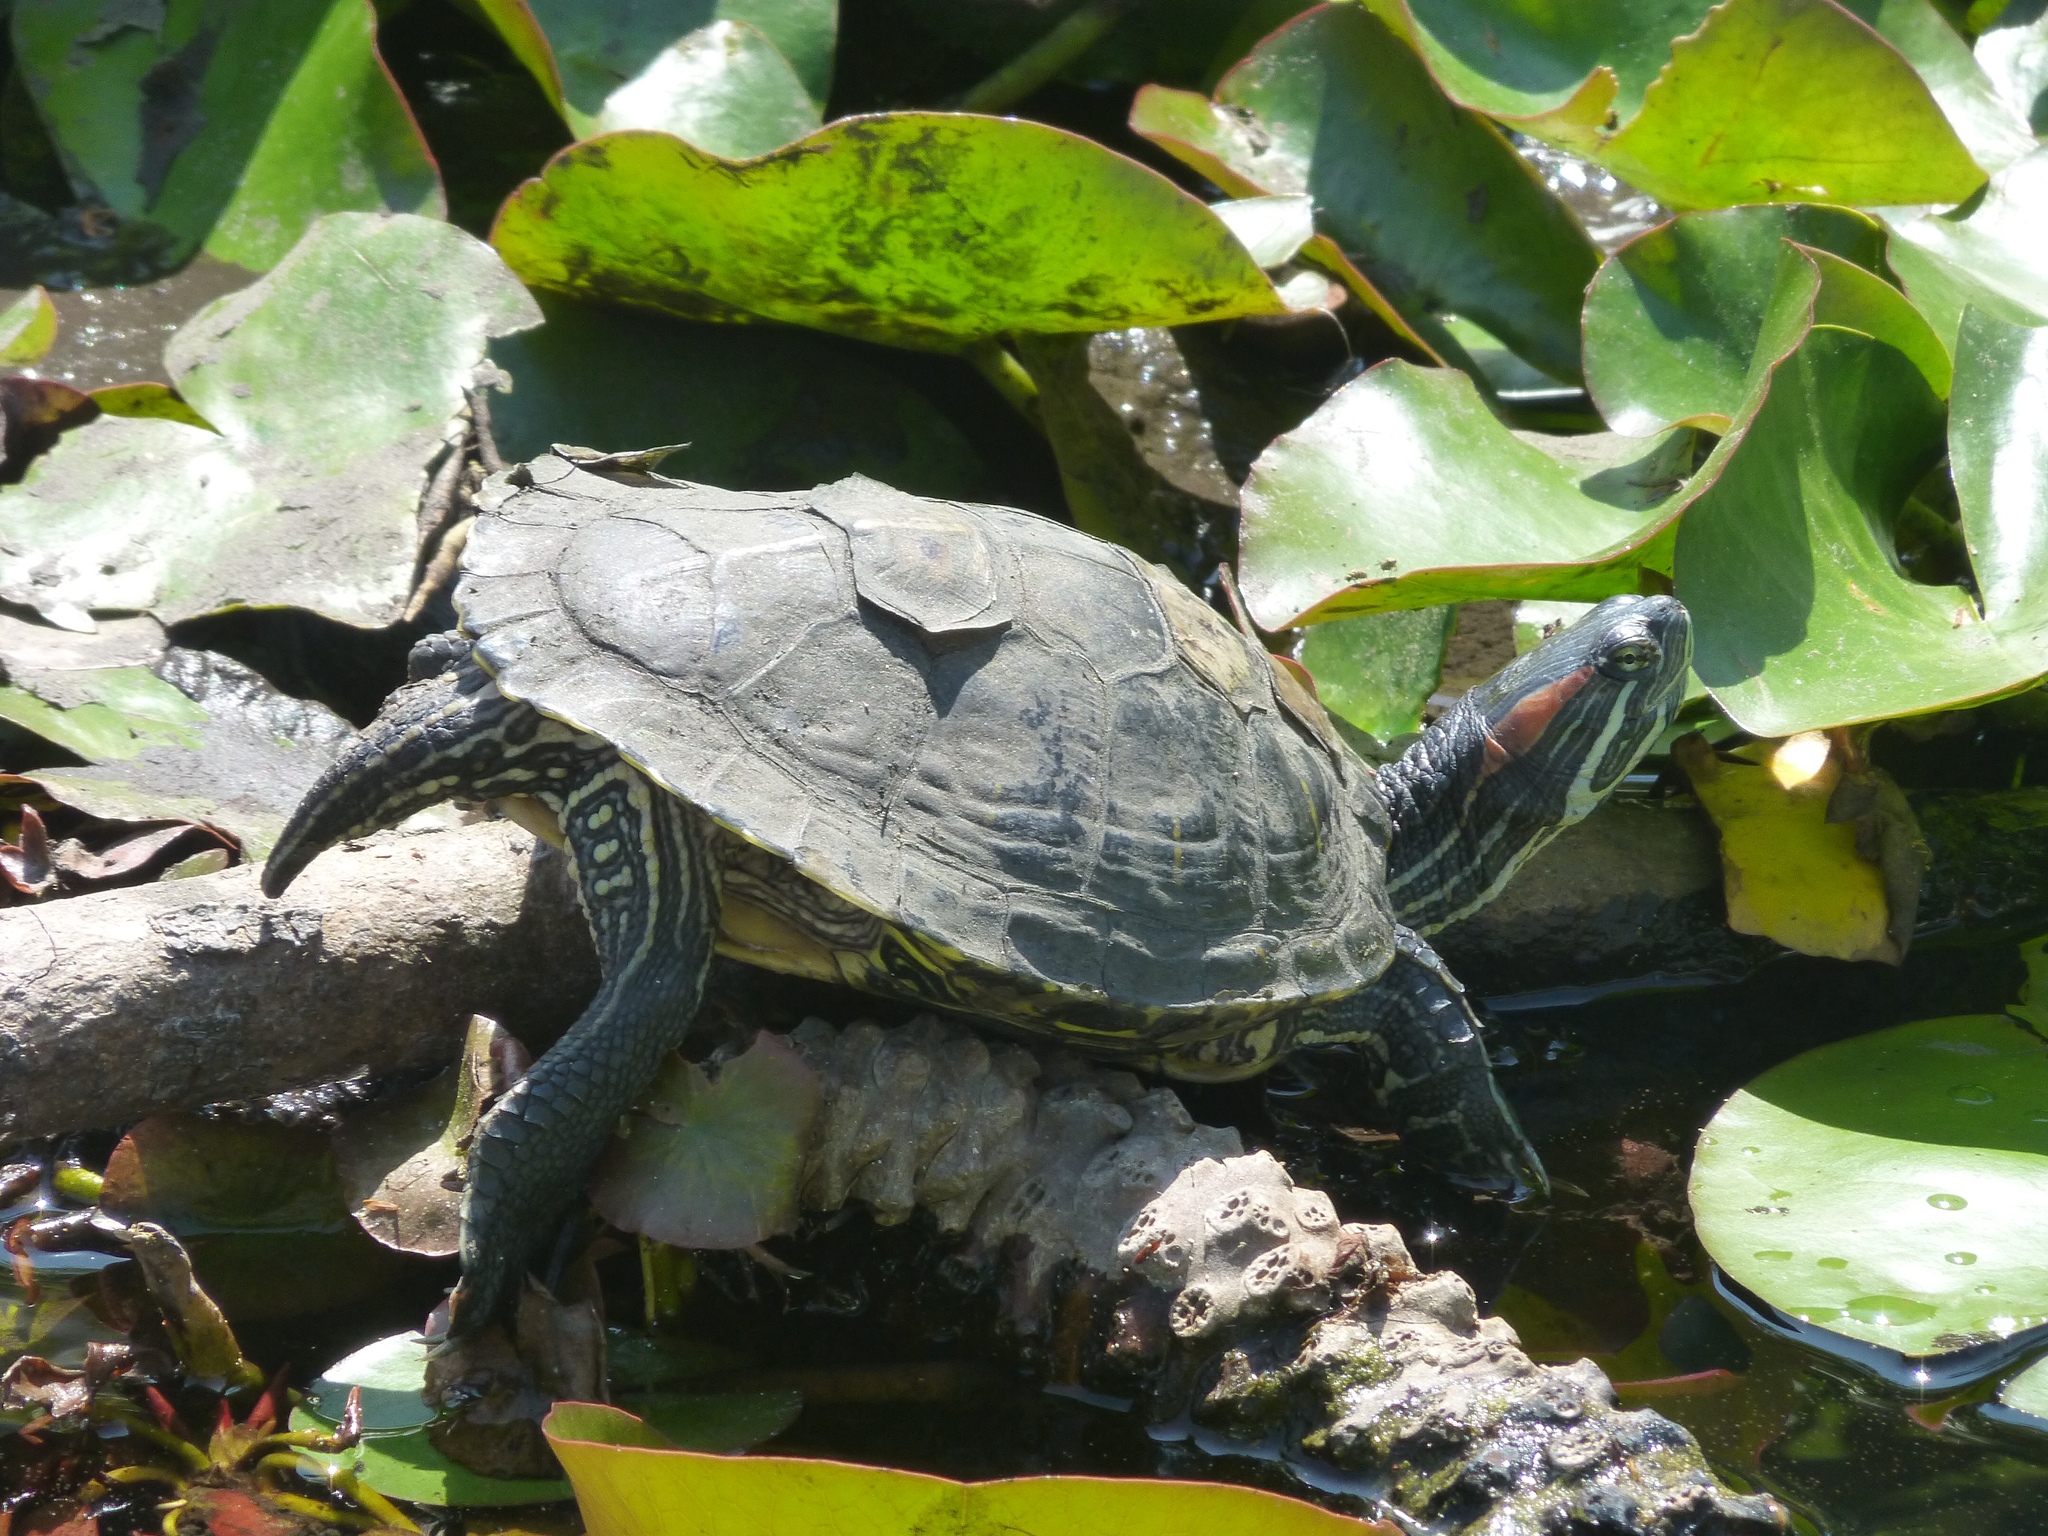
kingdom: Animalia
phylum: Chordata
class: Testudines
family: Emydidae
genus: Trachemys
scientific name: Trachemys scripta
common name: Slider
